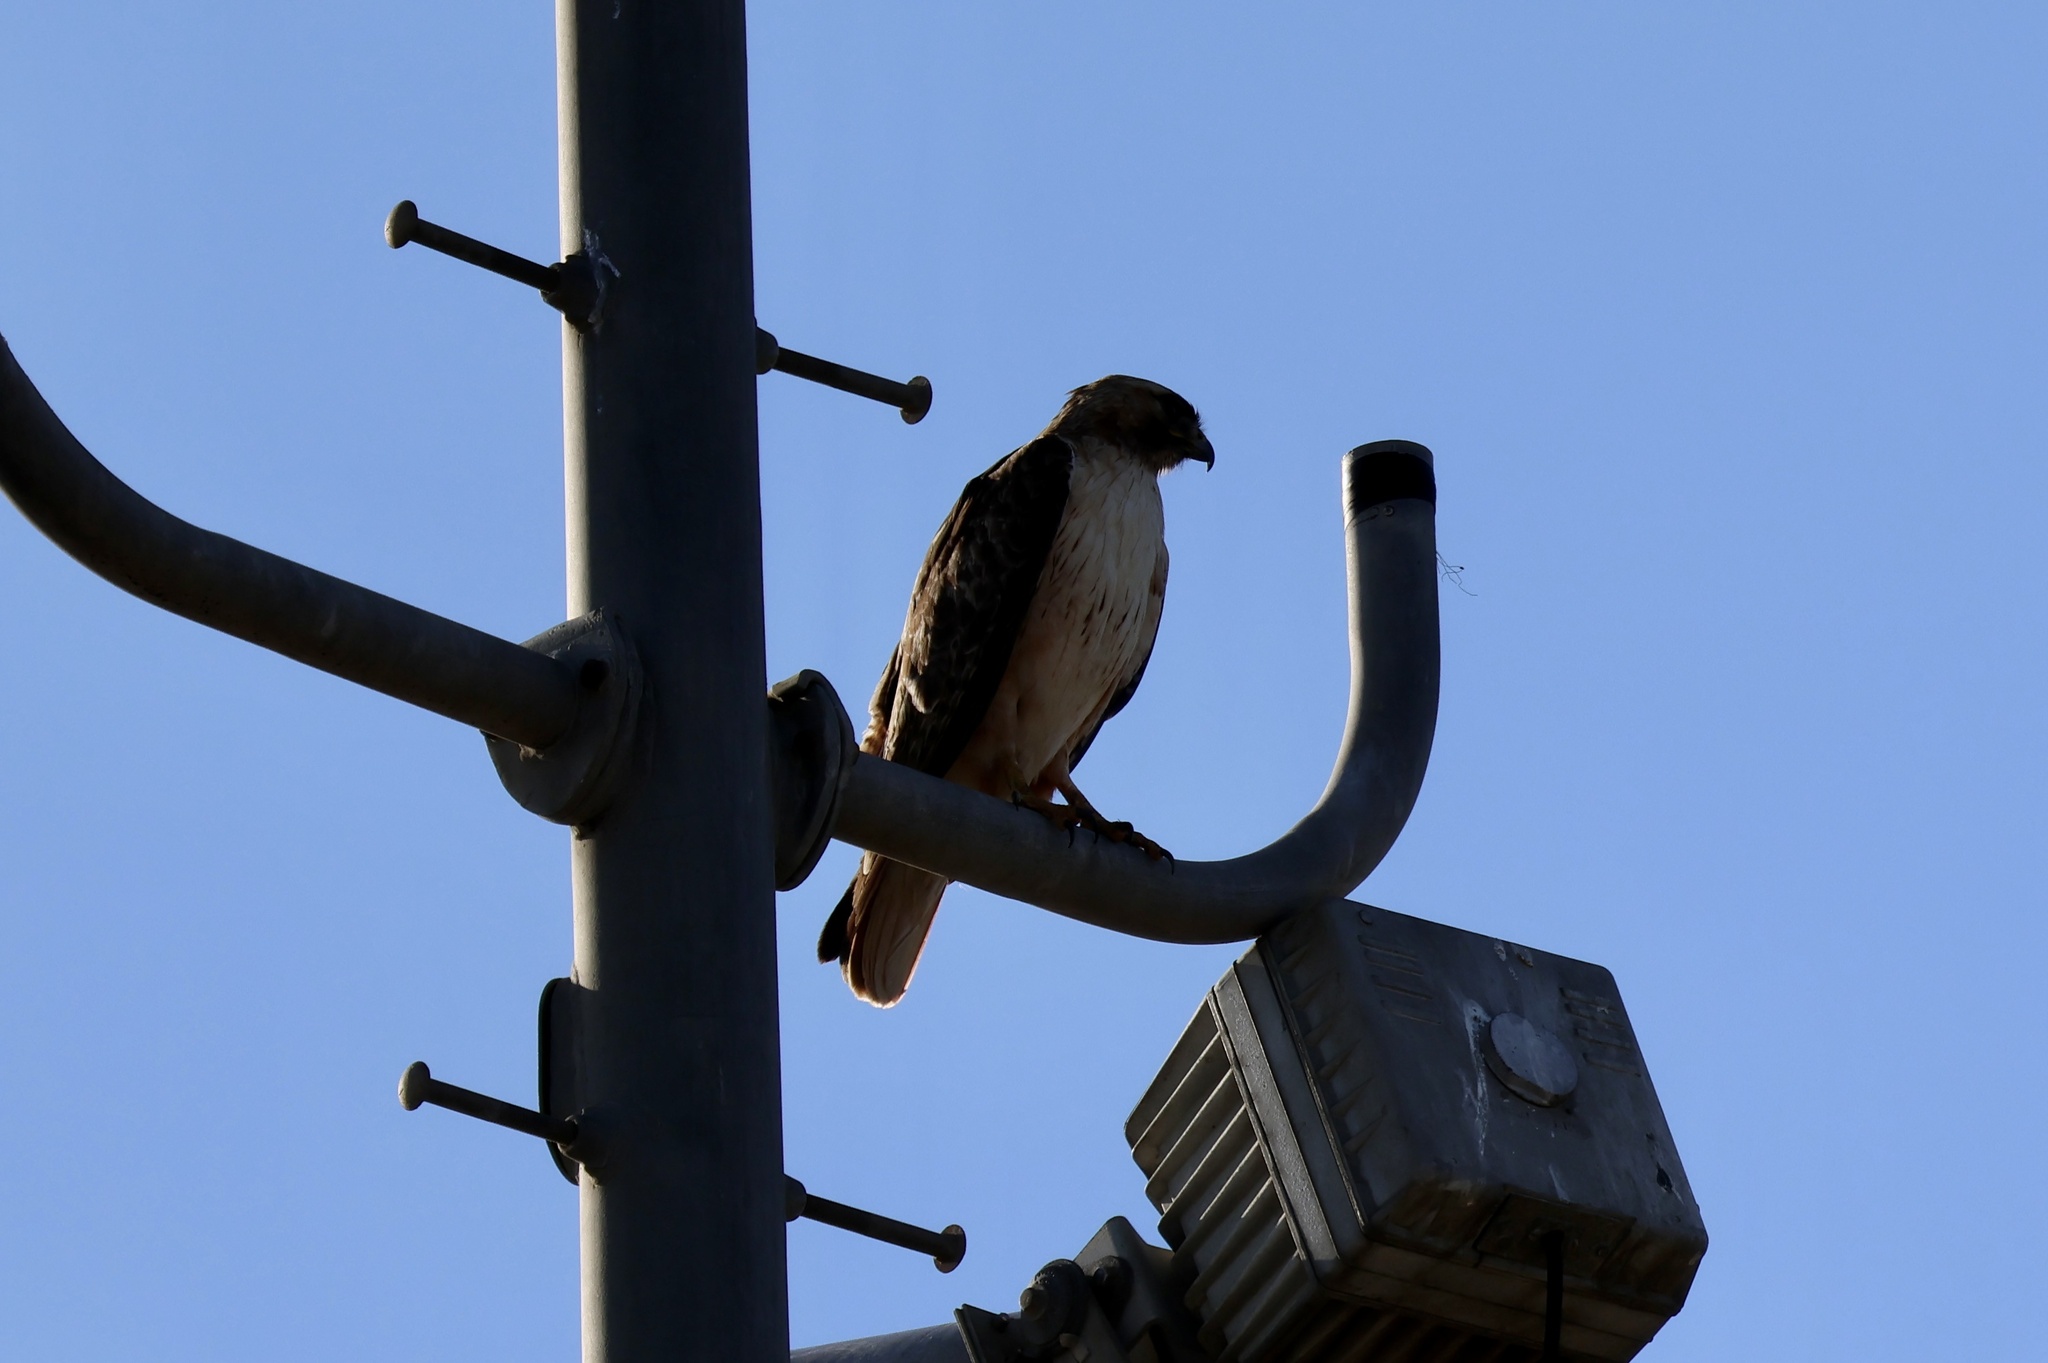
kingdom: Animalia
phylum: Chordata
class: Aves
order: Accipitriformes
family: Accipitridae
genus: Buteo
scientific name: Buteo jamaicensis
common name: Red-tailed hawk
